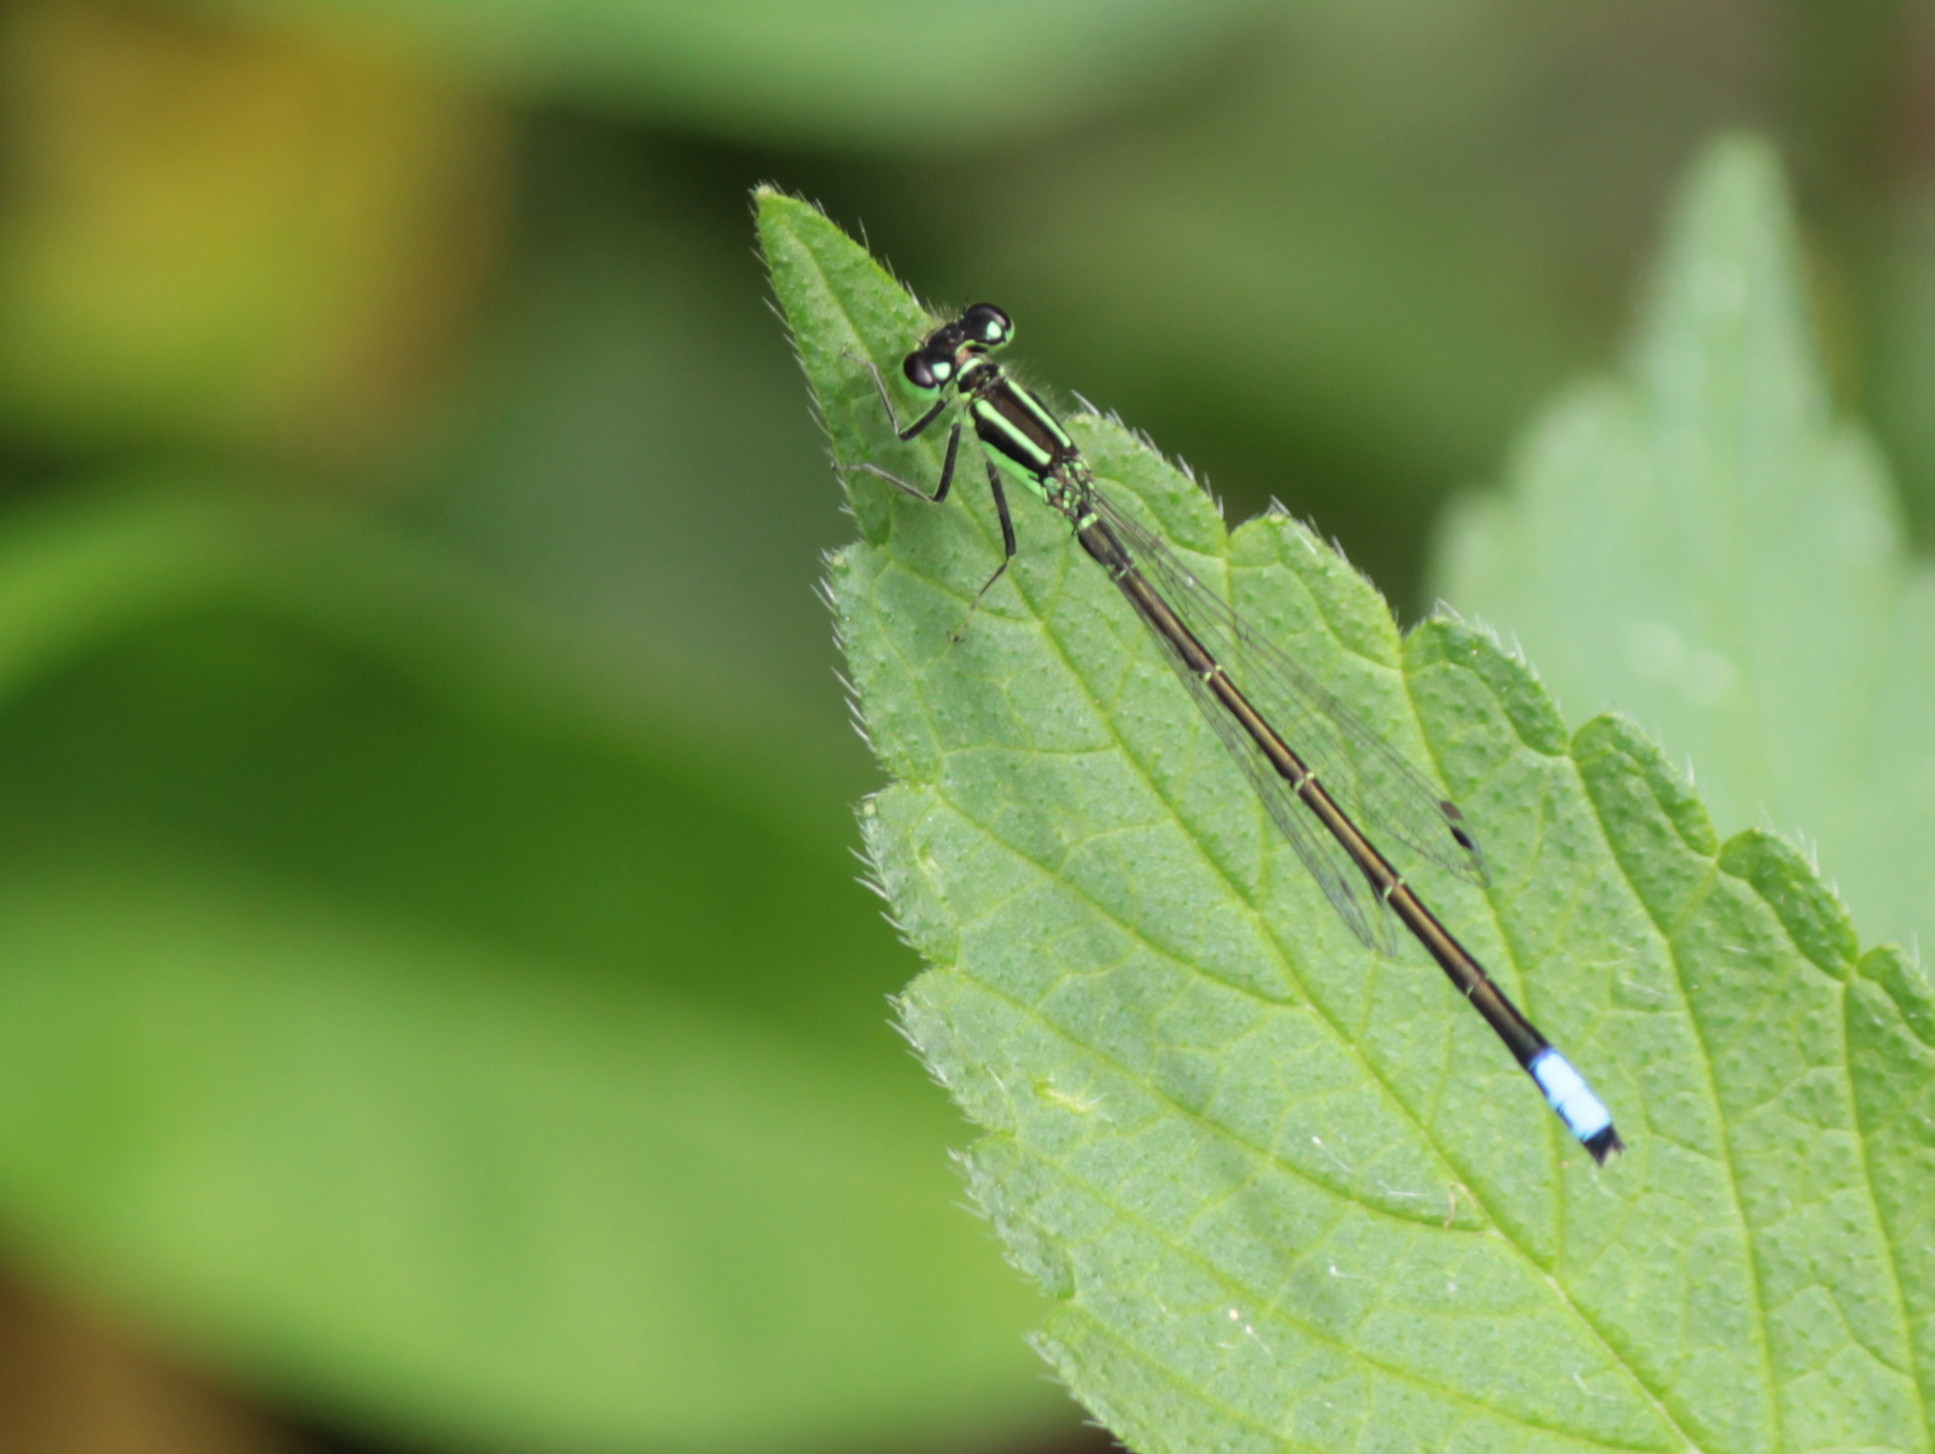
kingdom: Animalia
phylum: Arthropoda
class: Insecta
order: Odonata
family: Coenagrionidae
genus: Ischnura
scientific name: Ischnura verticalis
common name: Eastern forktail
